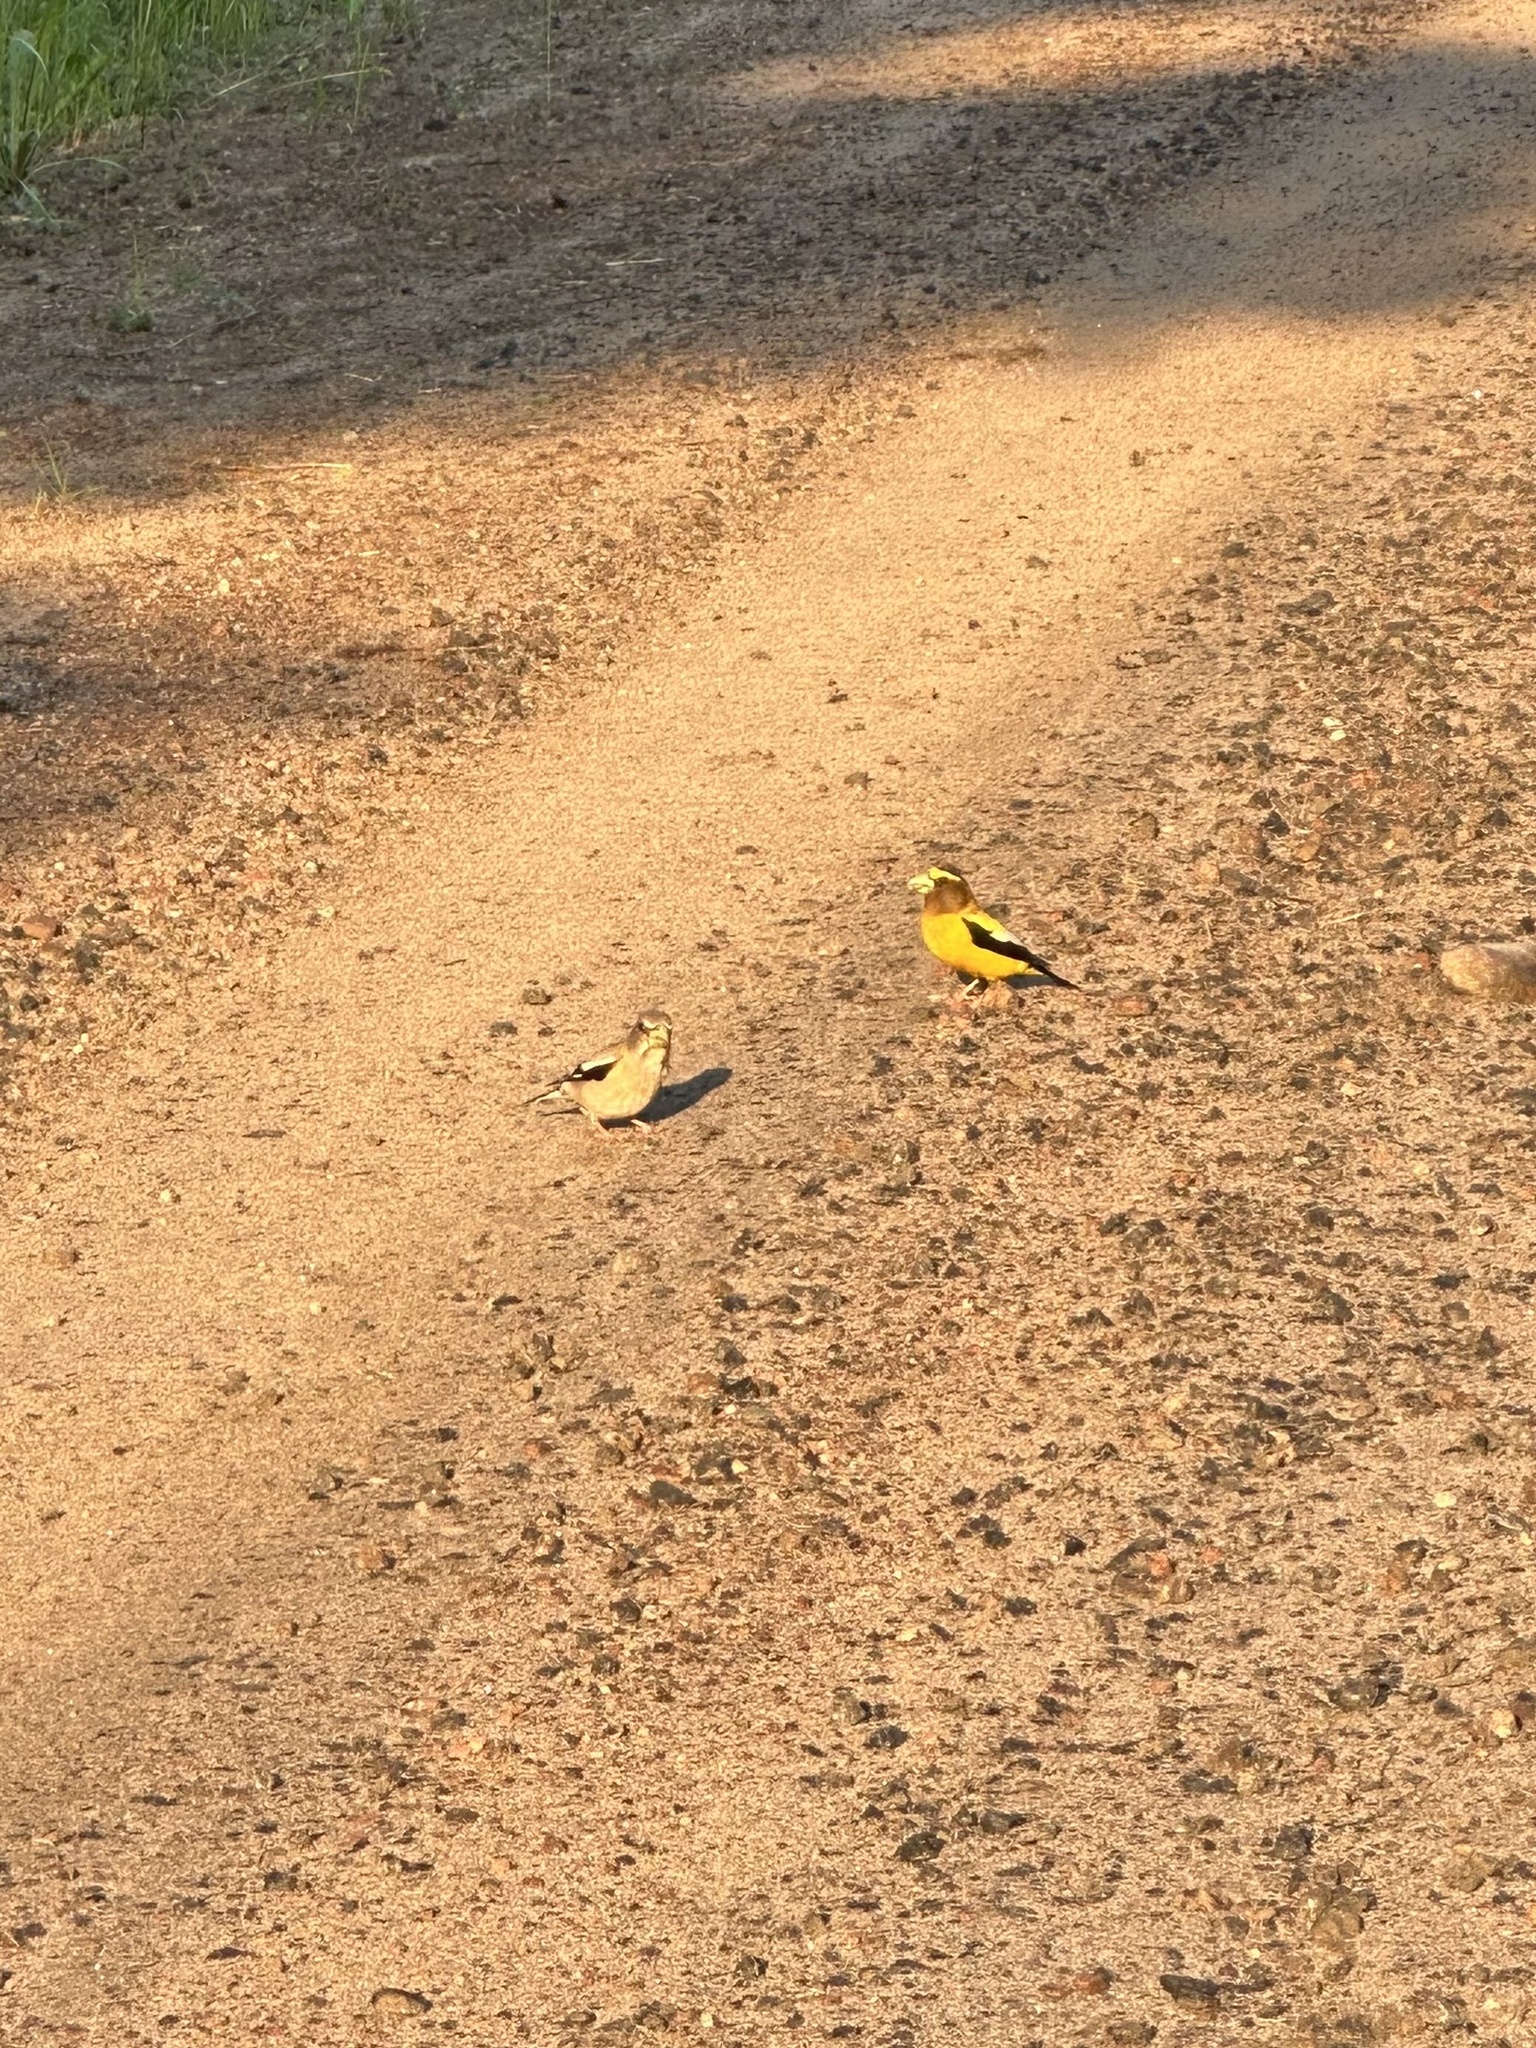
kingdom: Animalia
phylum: Chordata
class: Aves
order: Passeriformes
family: Fringillidae
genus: Hesperiphona
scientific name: Hesperiphona vespertina
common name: Evening grosbeak
